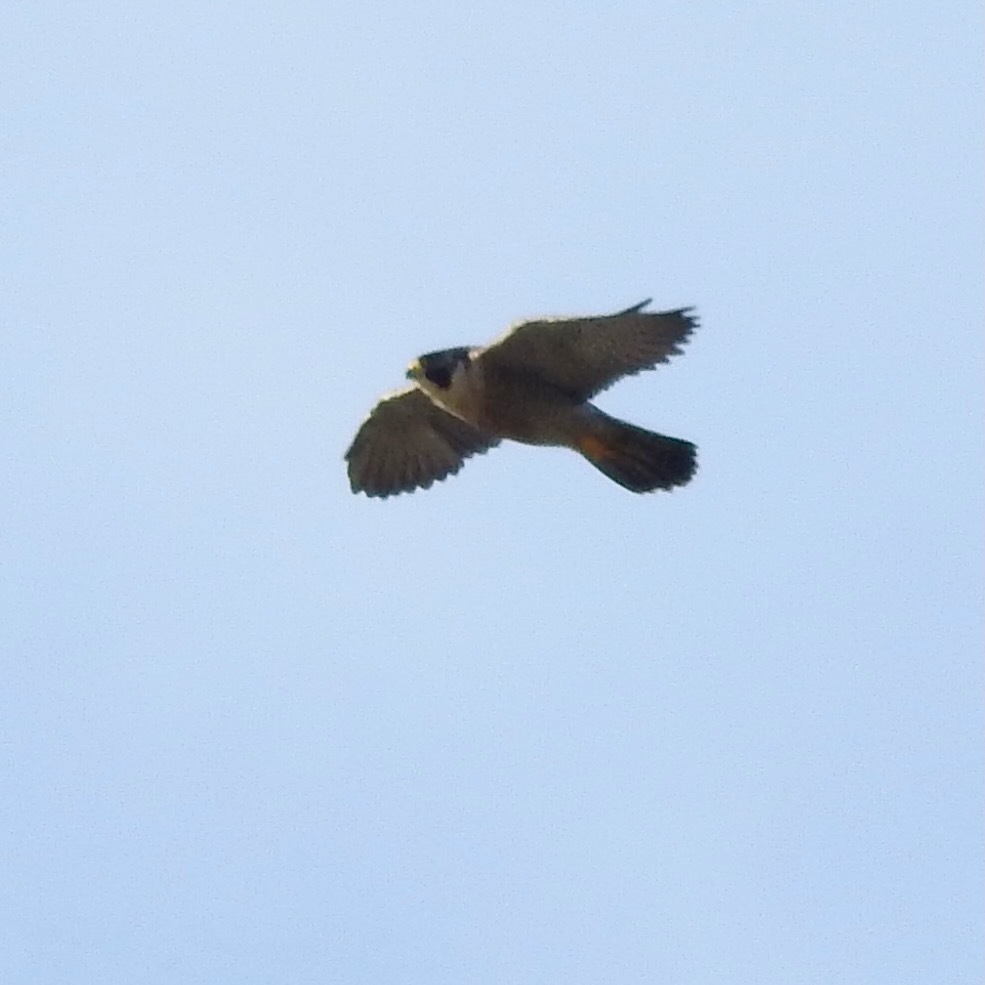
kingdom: Animalia
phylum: Chordata
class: Aves
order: Falconiformes
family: Falconidae
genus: Falco
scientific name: Falco peregrinus
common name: Peregrine falcon
